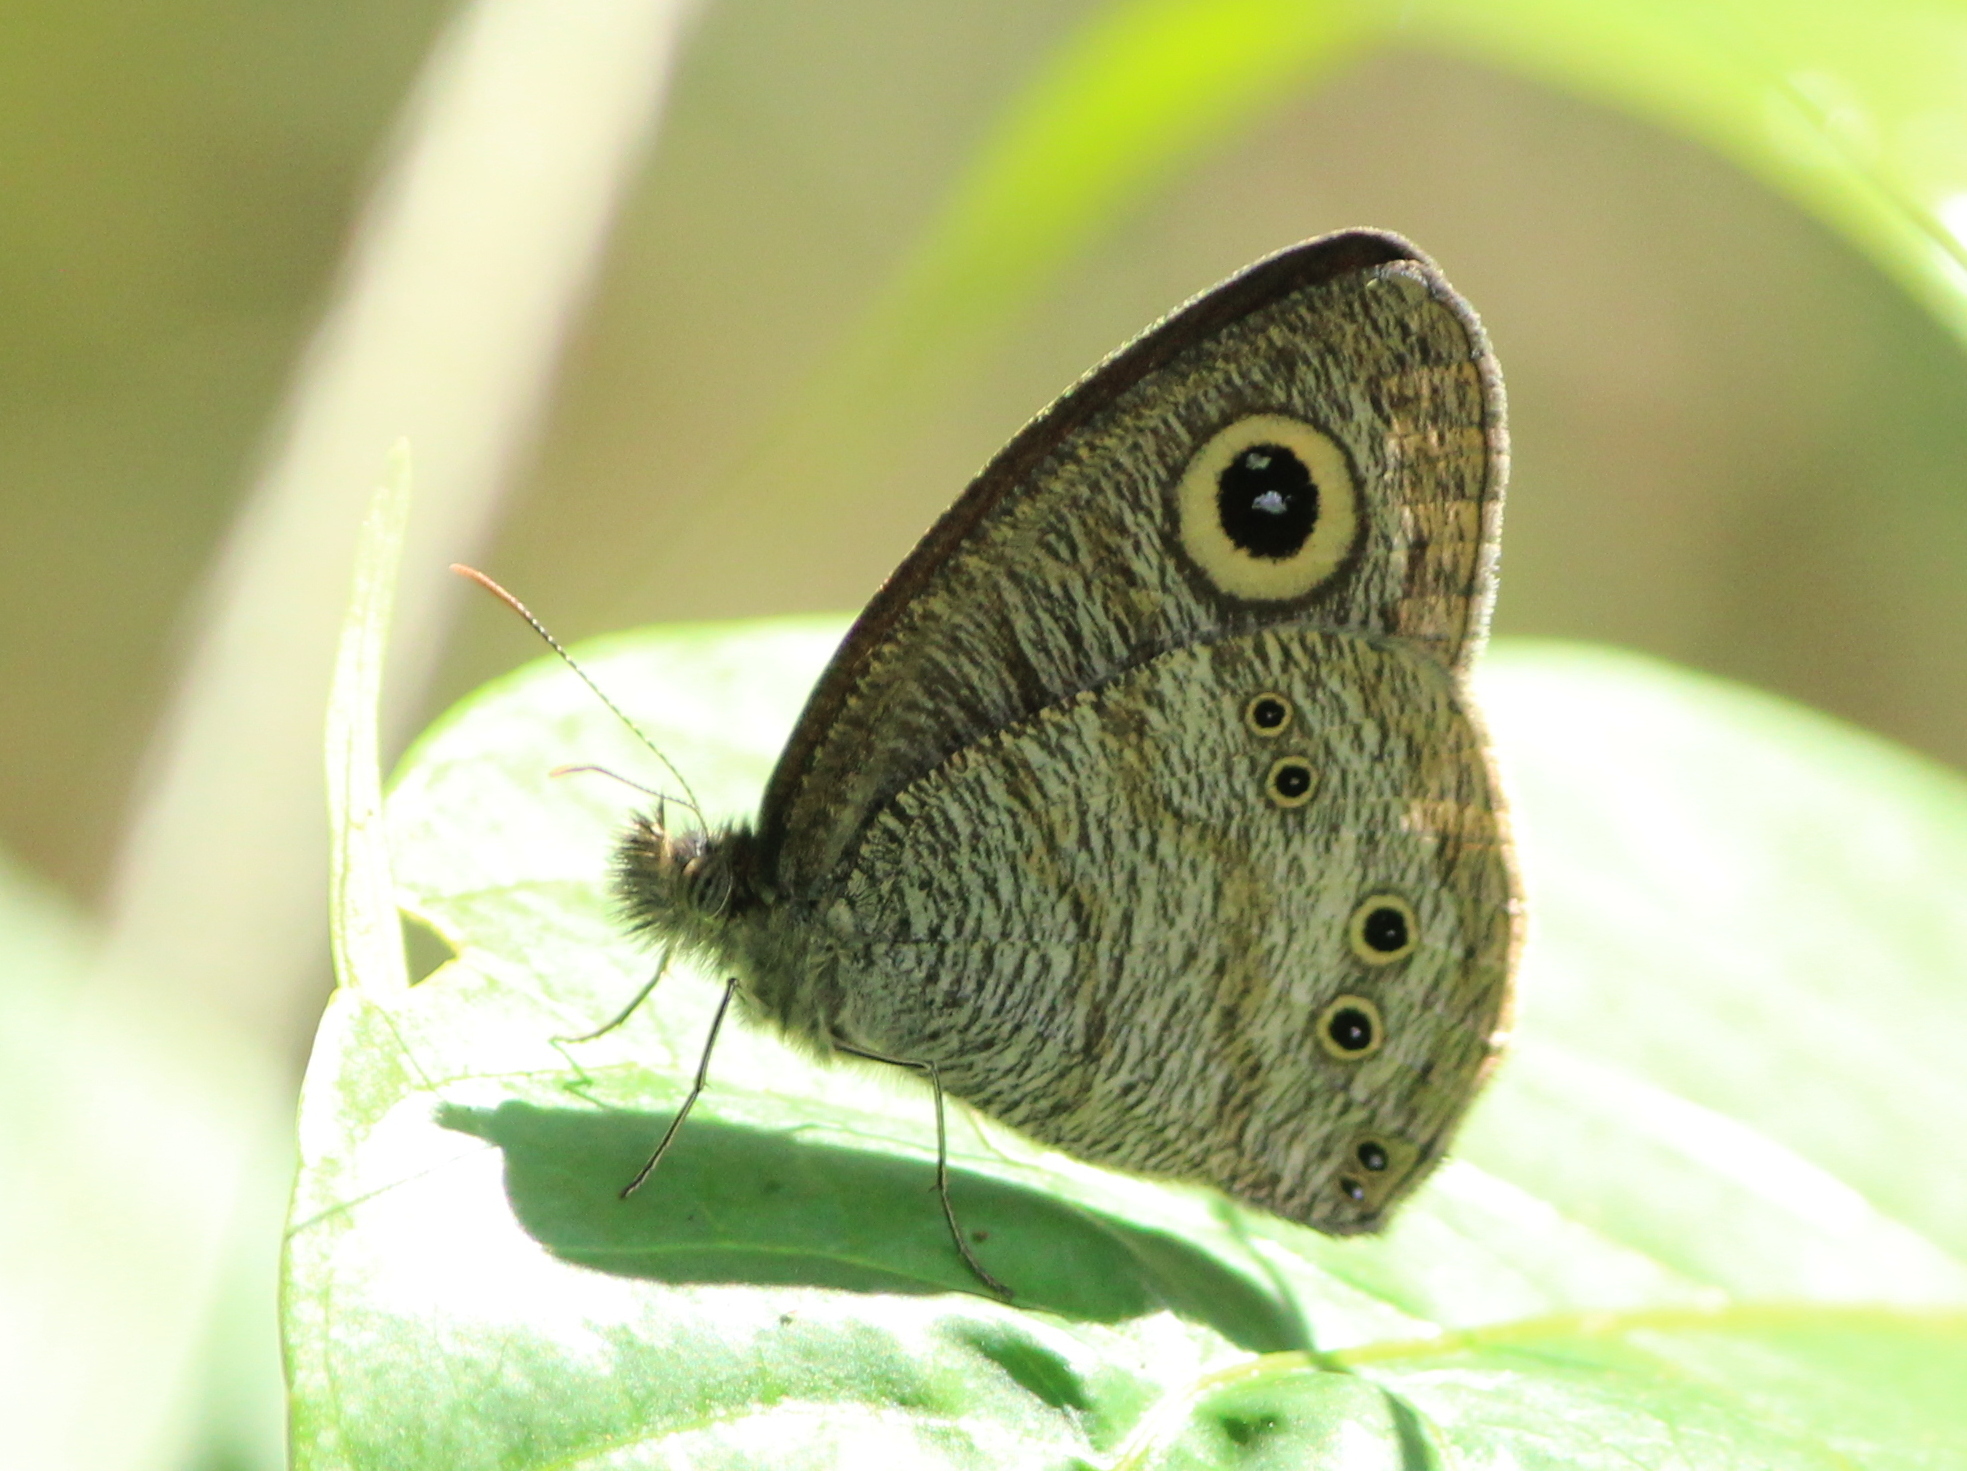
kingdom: Animalia
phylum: Arthropoda
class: Insecta
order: Lepidoptera
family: Nymphalidae
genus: Ypthima
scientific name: Ypthima baldus
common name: Common five-ring
